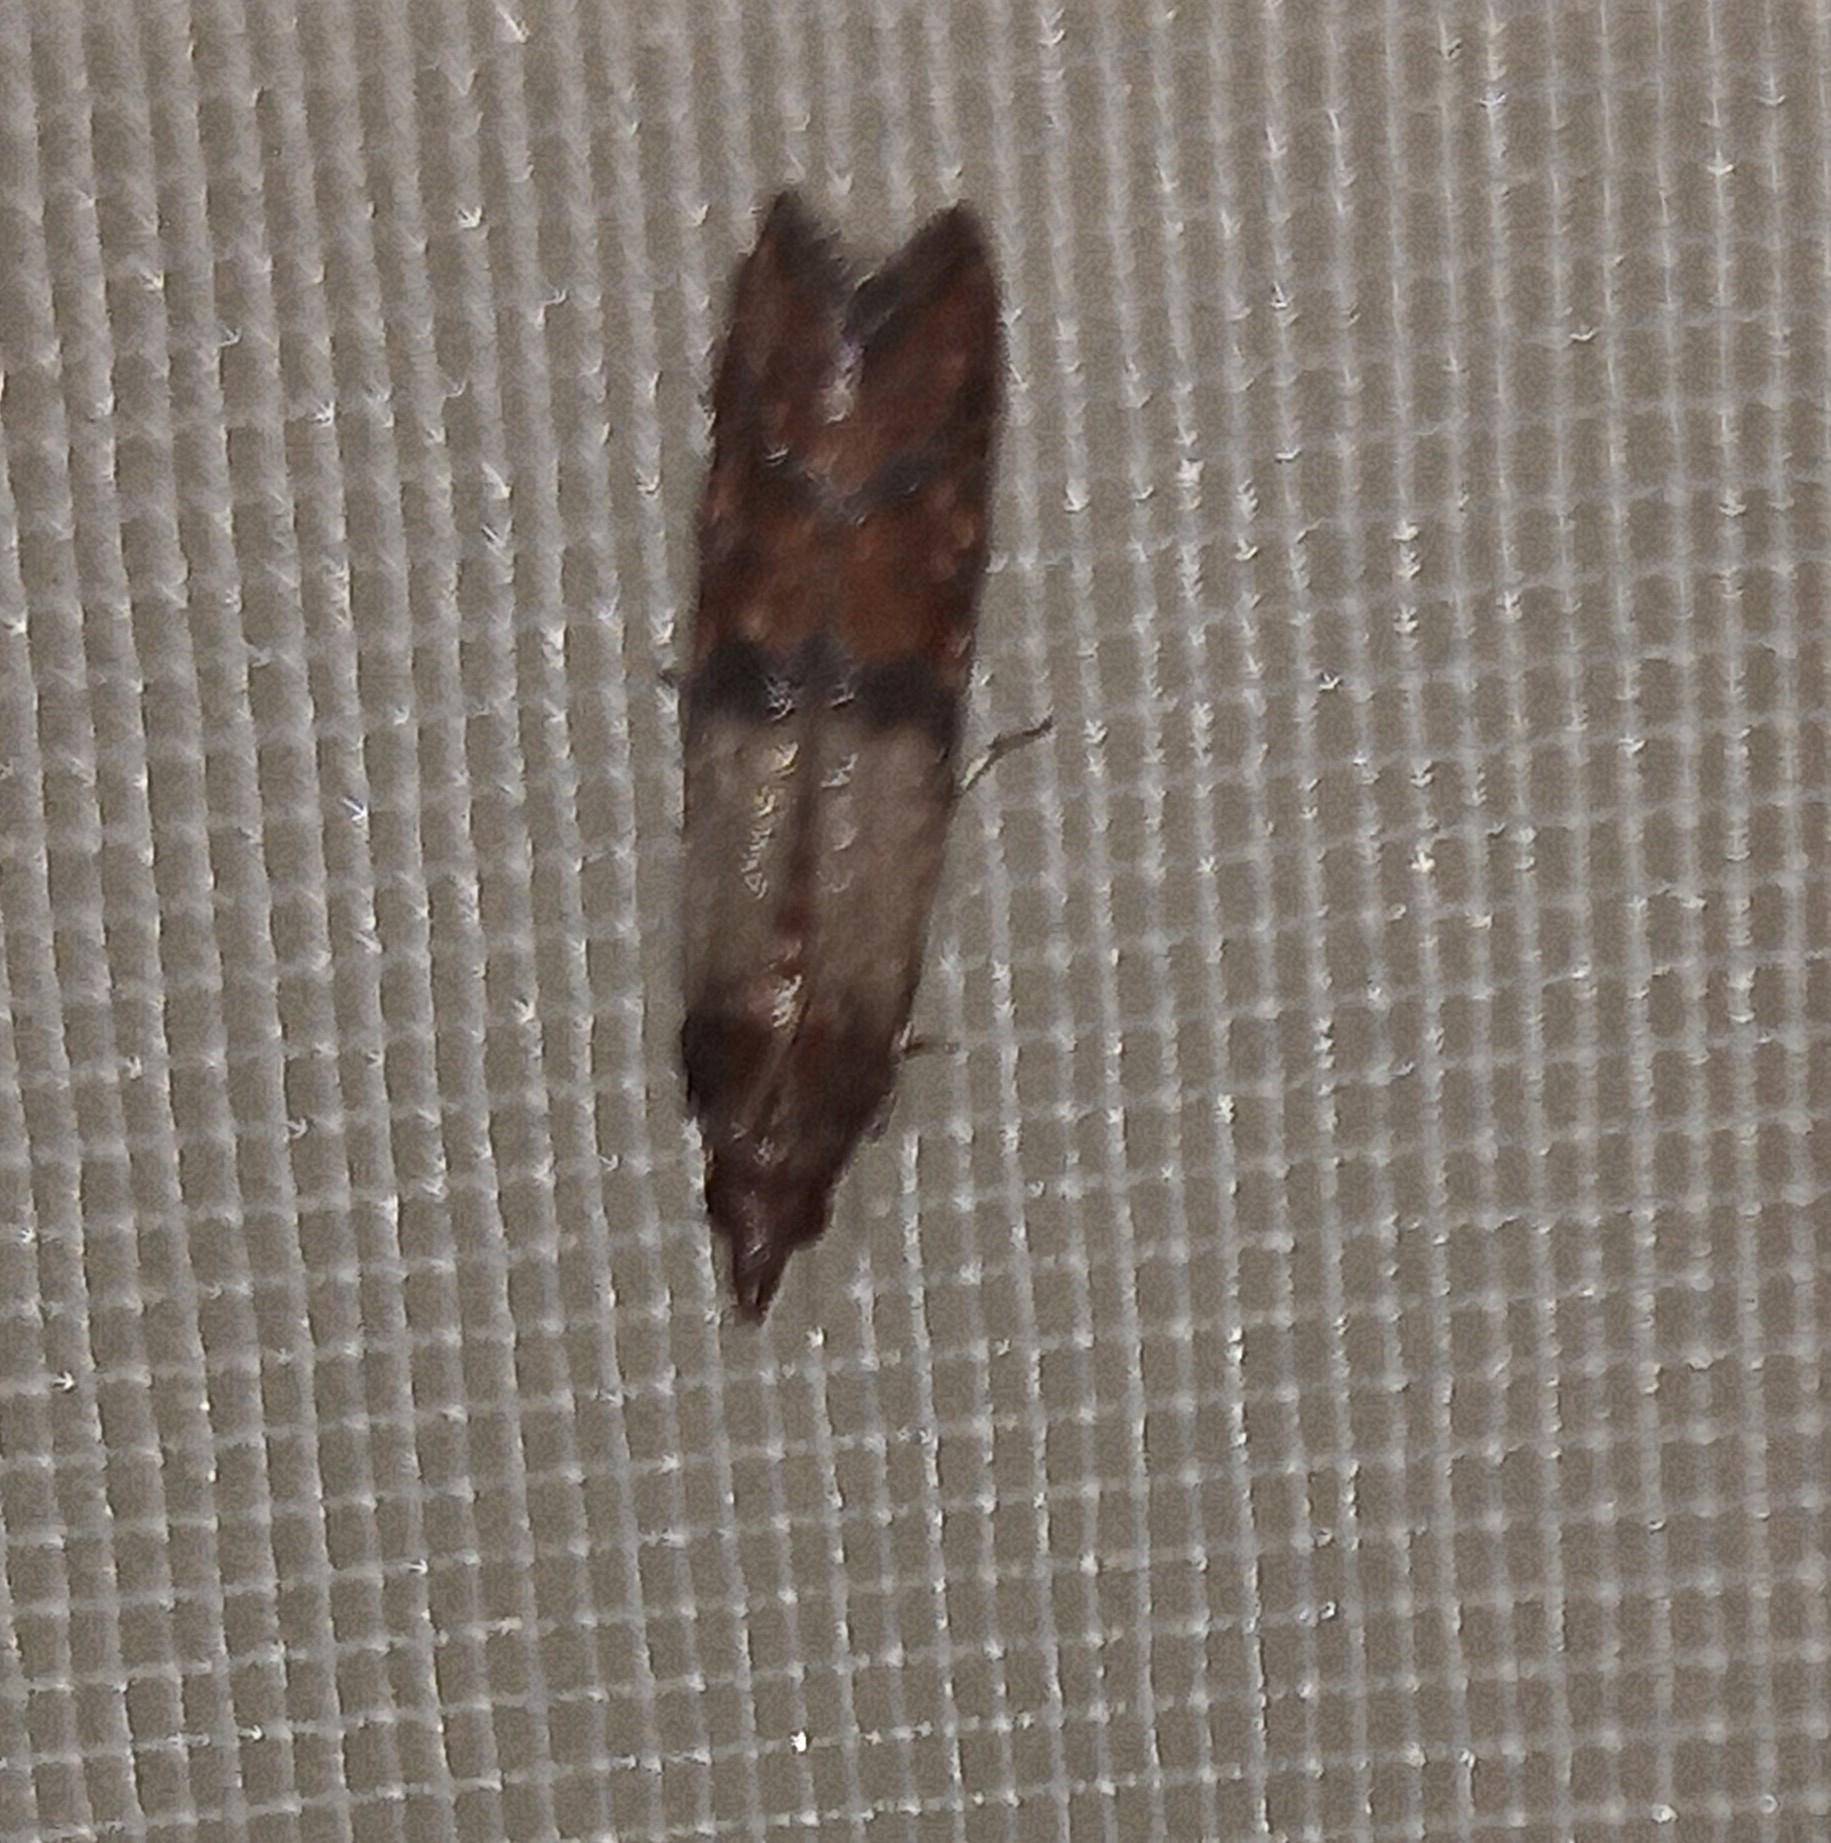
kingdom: Animalia
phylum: Arthropoda
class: Insecta
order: Lepidoptera
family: Pyralidae
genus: Plodia
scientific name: Plodia interpunctella
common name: Indian meal moth
